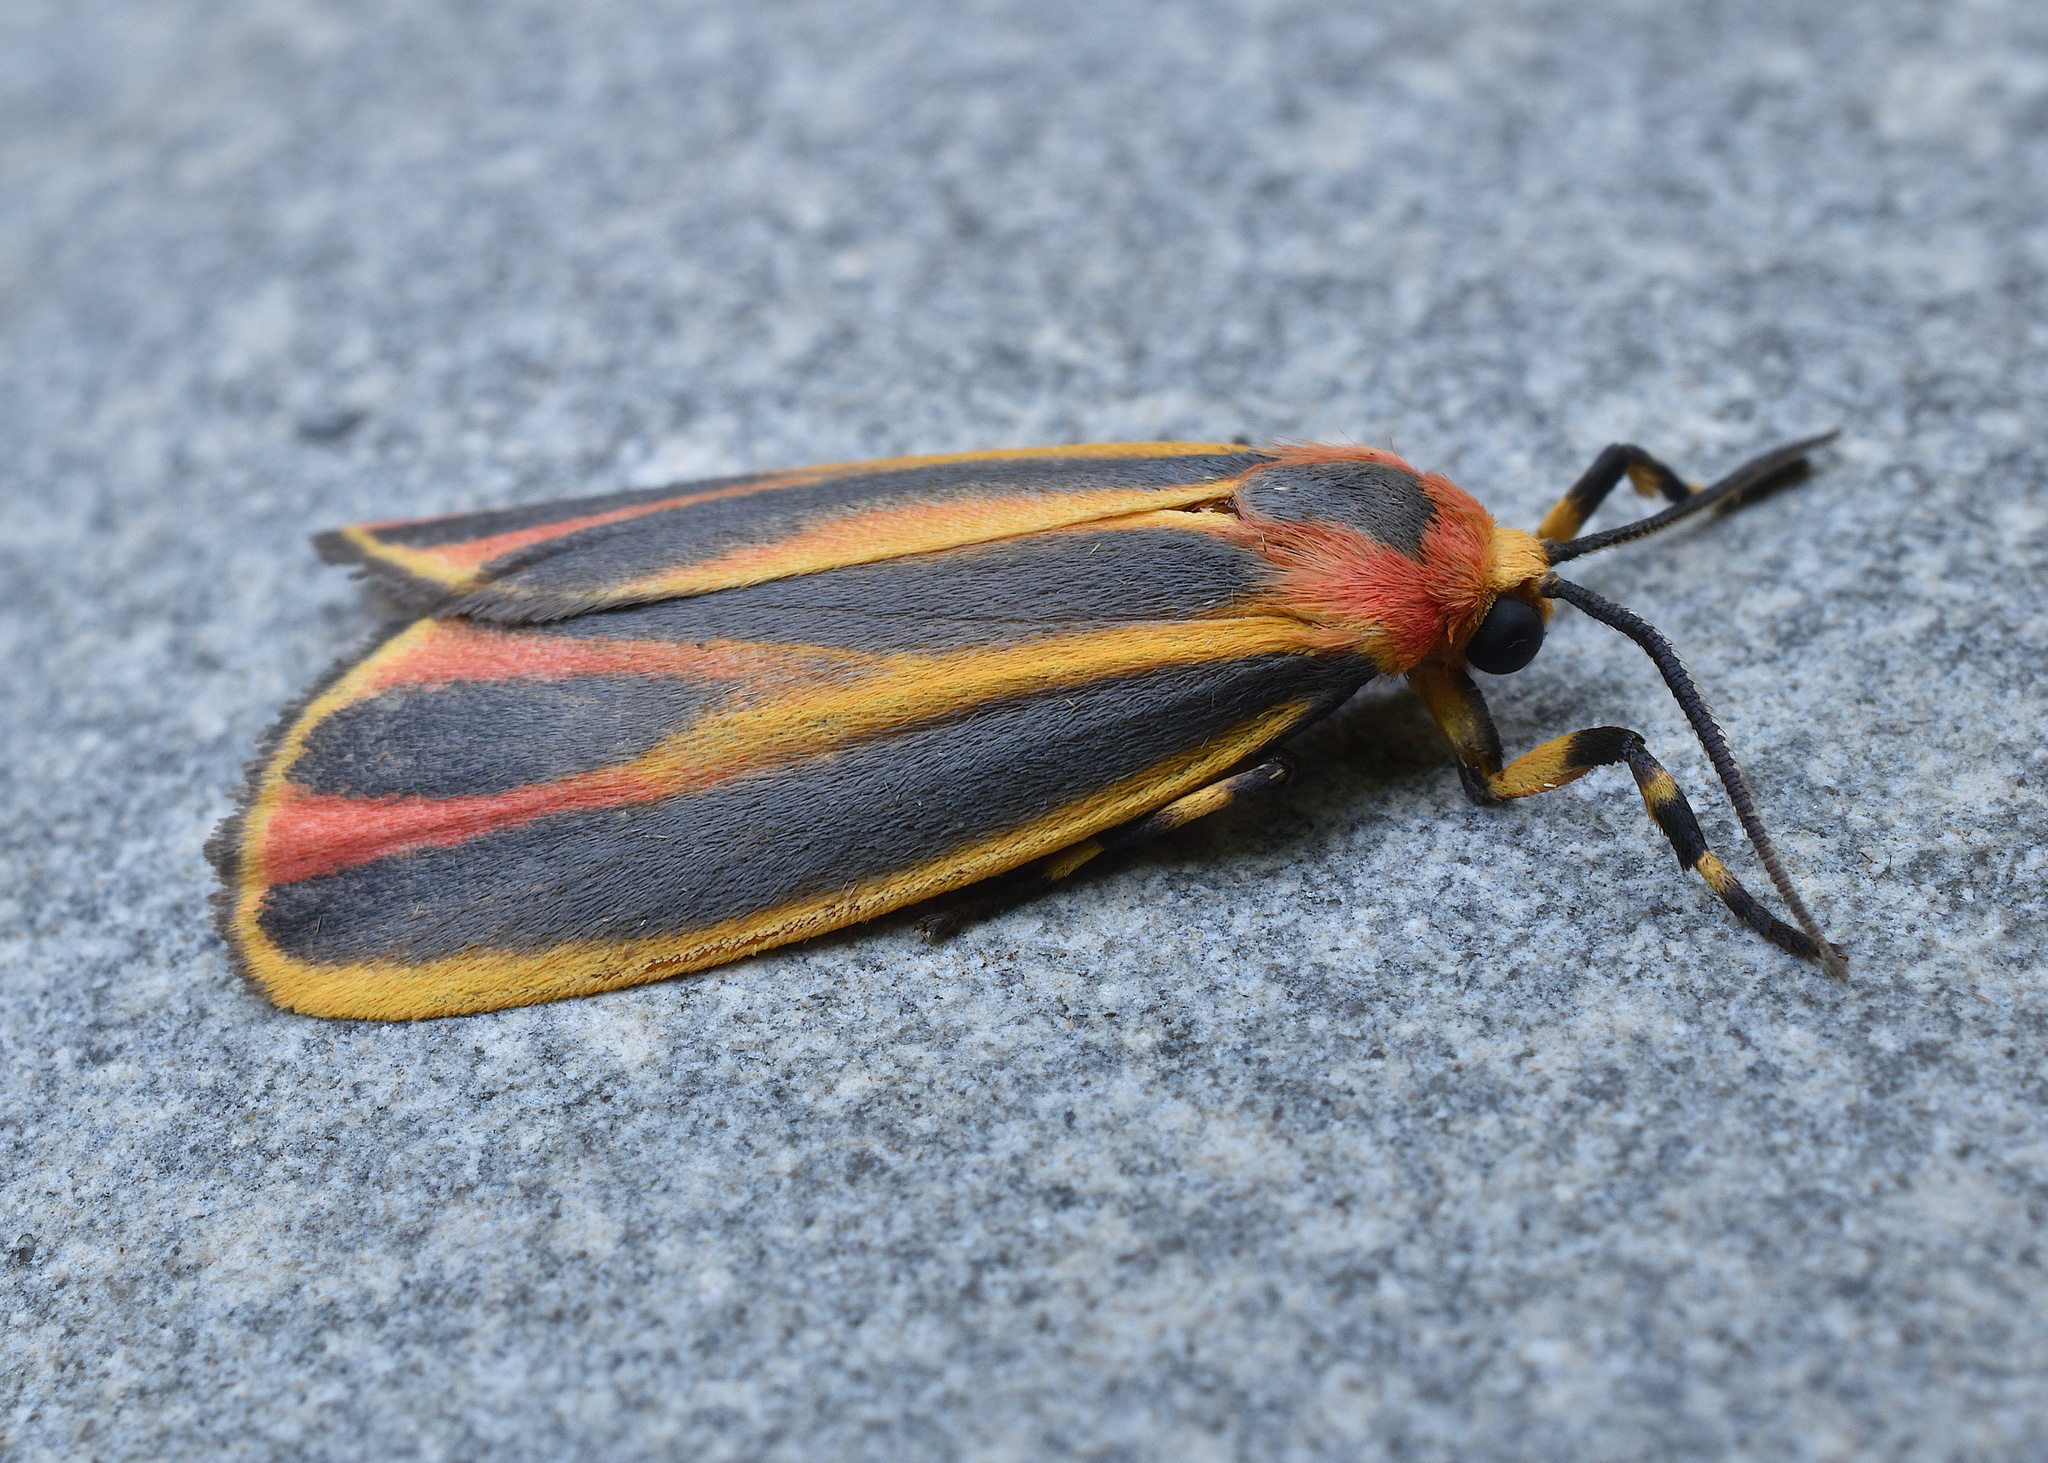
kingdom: Animalia
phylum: Arthropoda
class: Insecta
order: Lepidoptera
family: Erebidae
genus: Hypoprepia
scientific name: Hypoprepia fucosa
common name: Painted lichen moth
